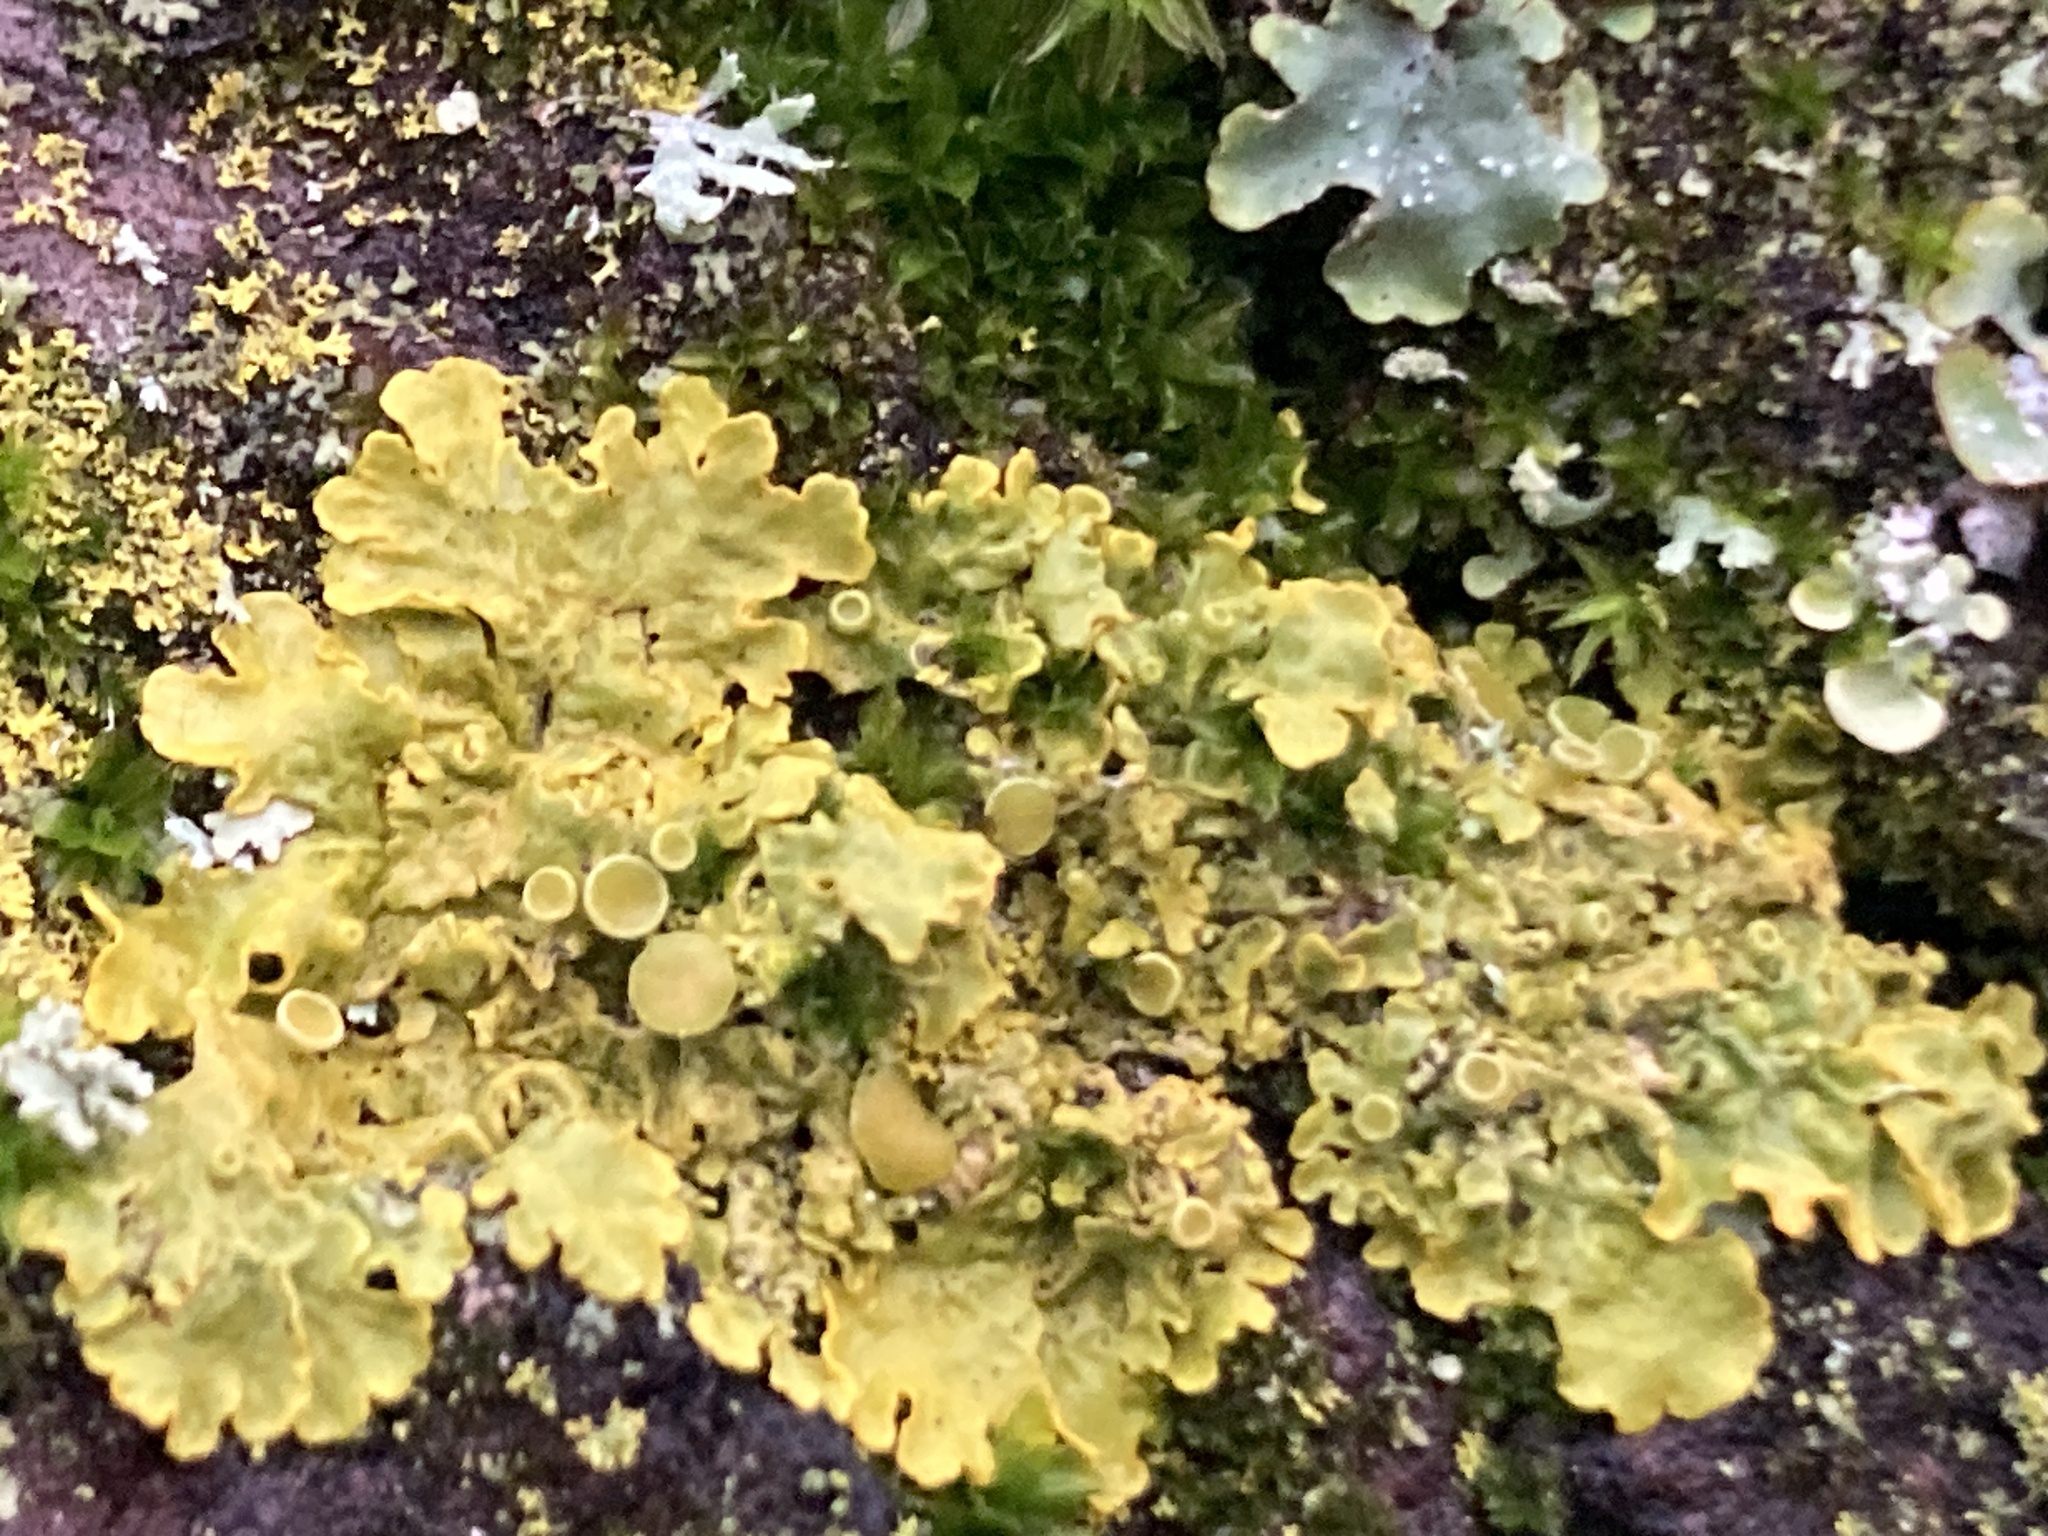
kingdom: Fungi
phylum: Ascomycota
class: Lecanoromycetes
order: Teloschistales
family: Teloschistaceae
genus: Xanthoria
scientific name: Xanthoria parietina
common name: Common orange lichen
